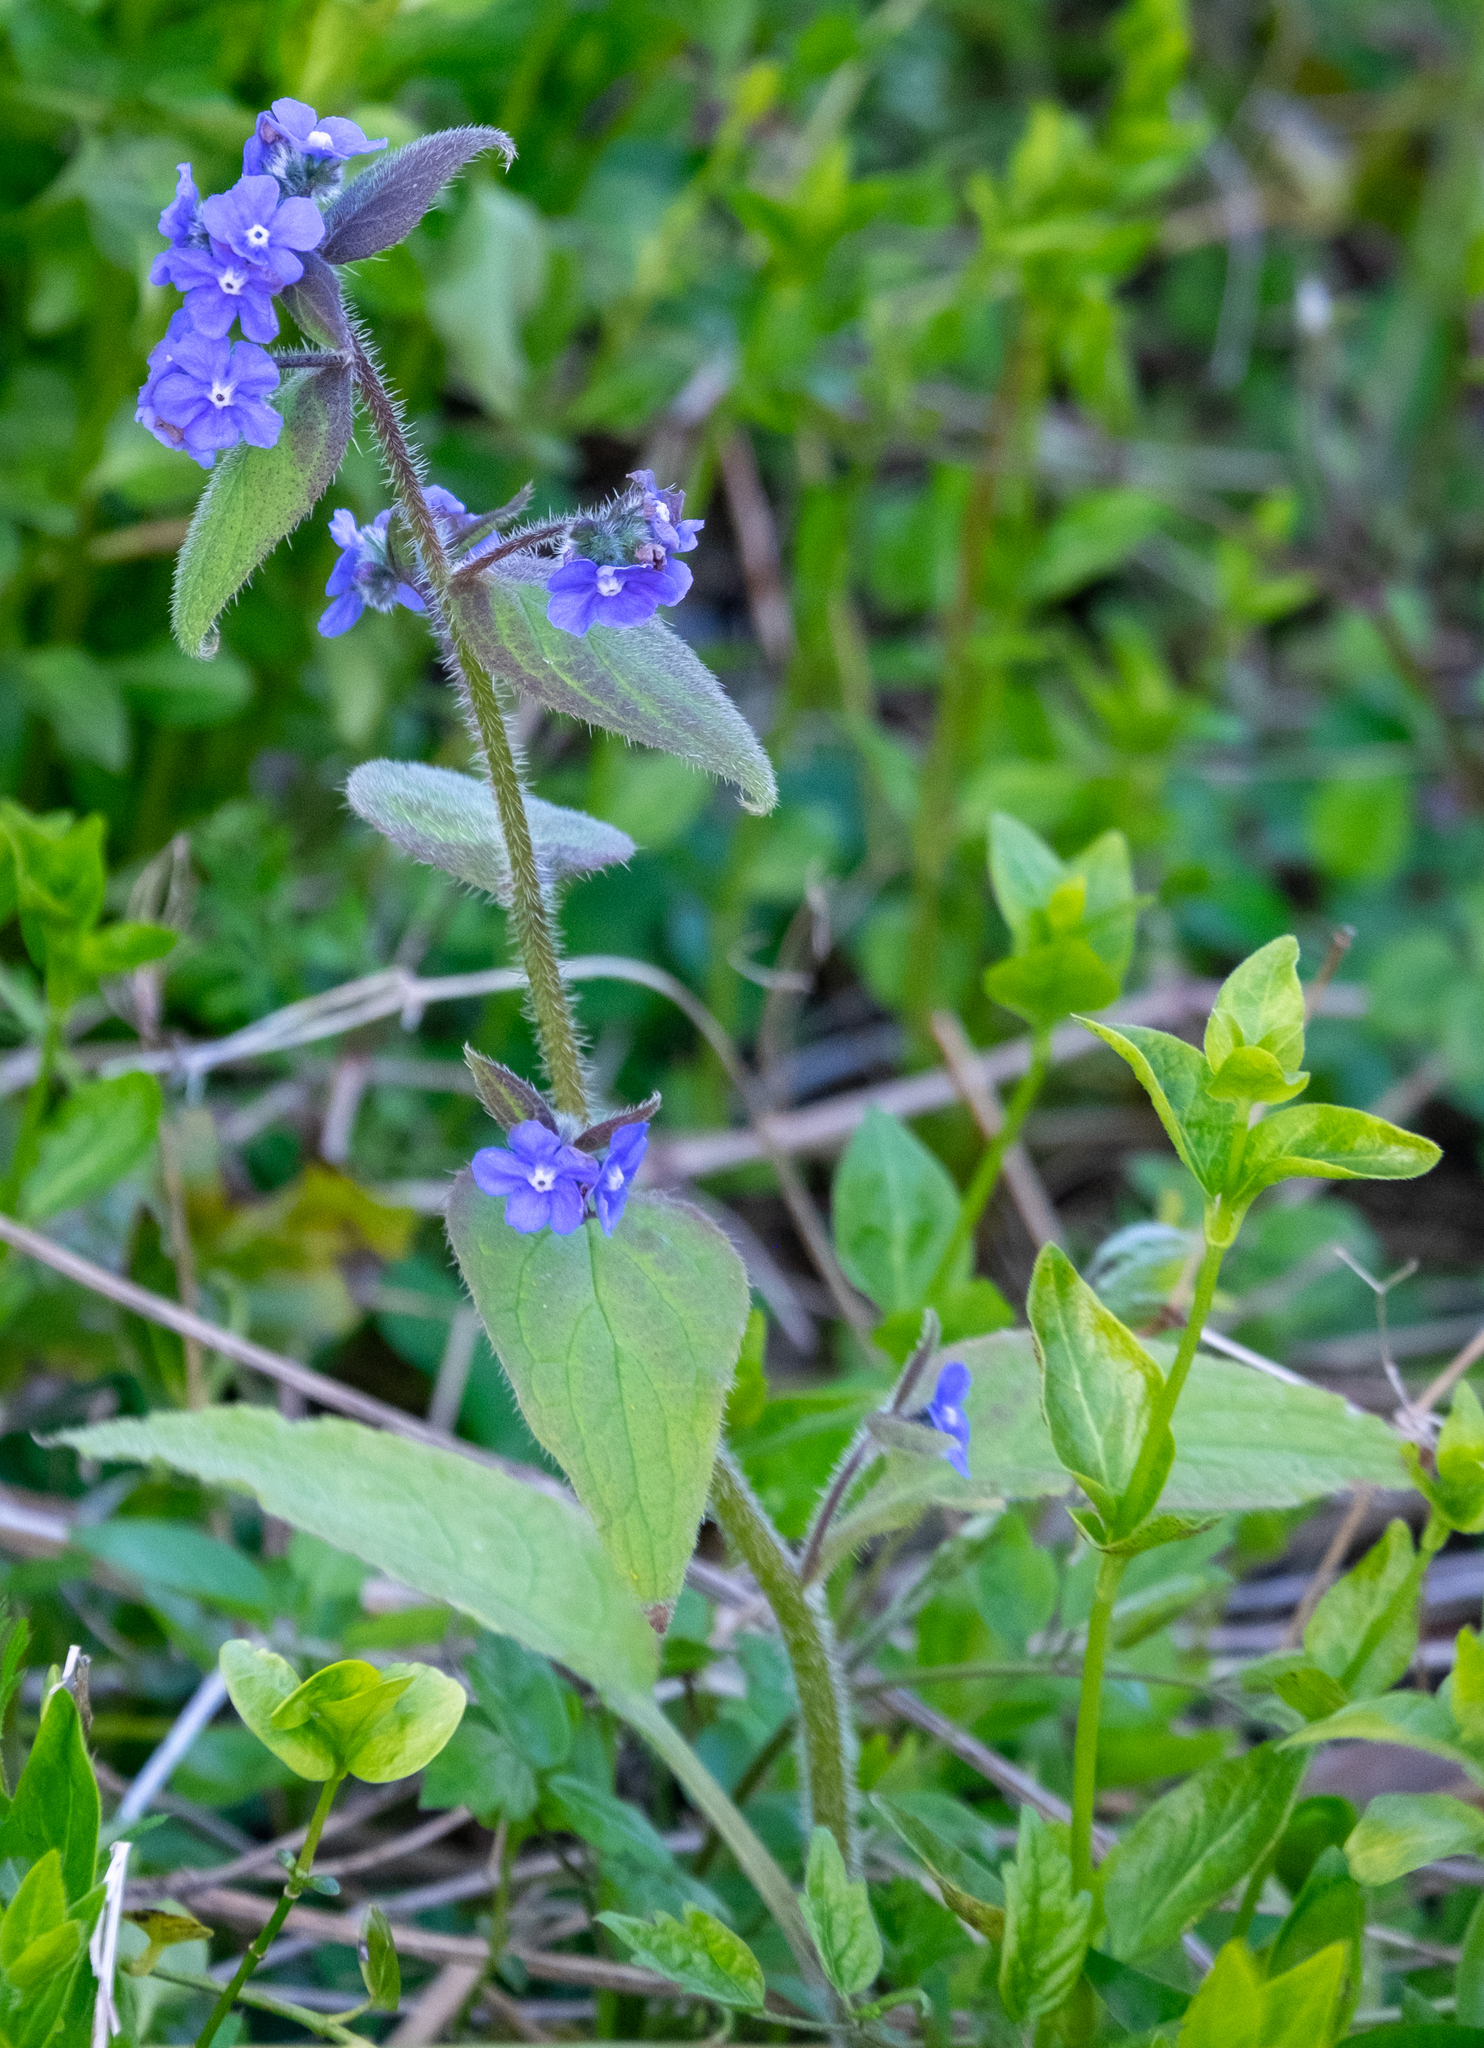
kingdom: Plantae
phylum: Tracheophyta
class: Magnoliopsida
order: Boraginales
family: Boraginaceae
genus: Pentaglottis
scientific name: Pentaglottis sempervirens
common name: Green alkanet
